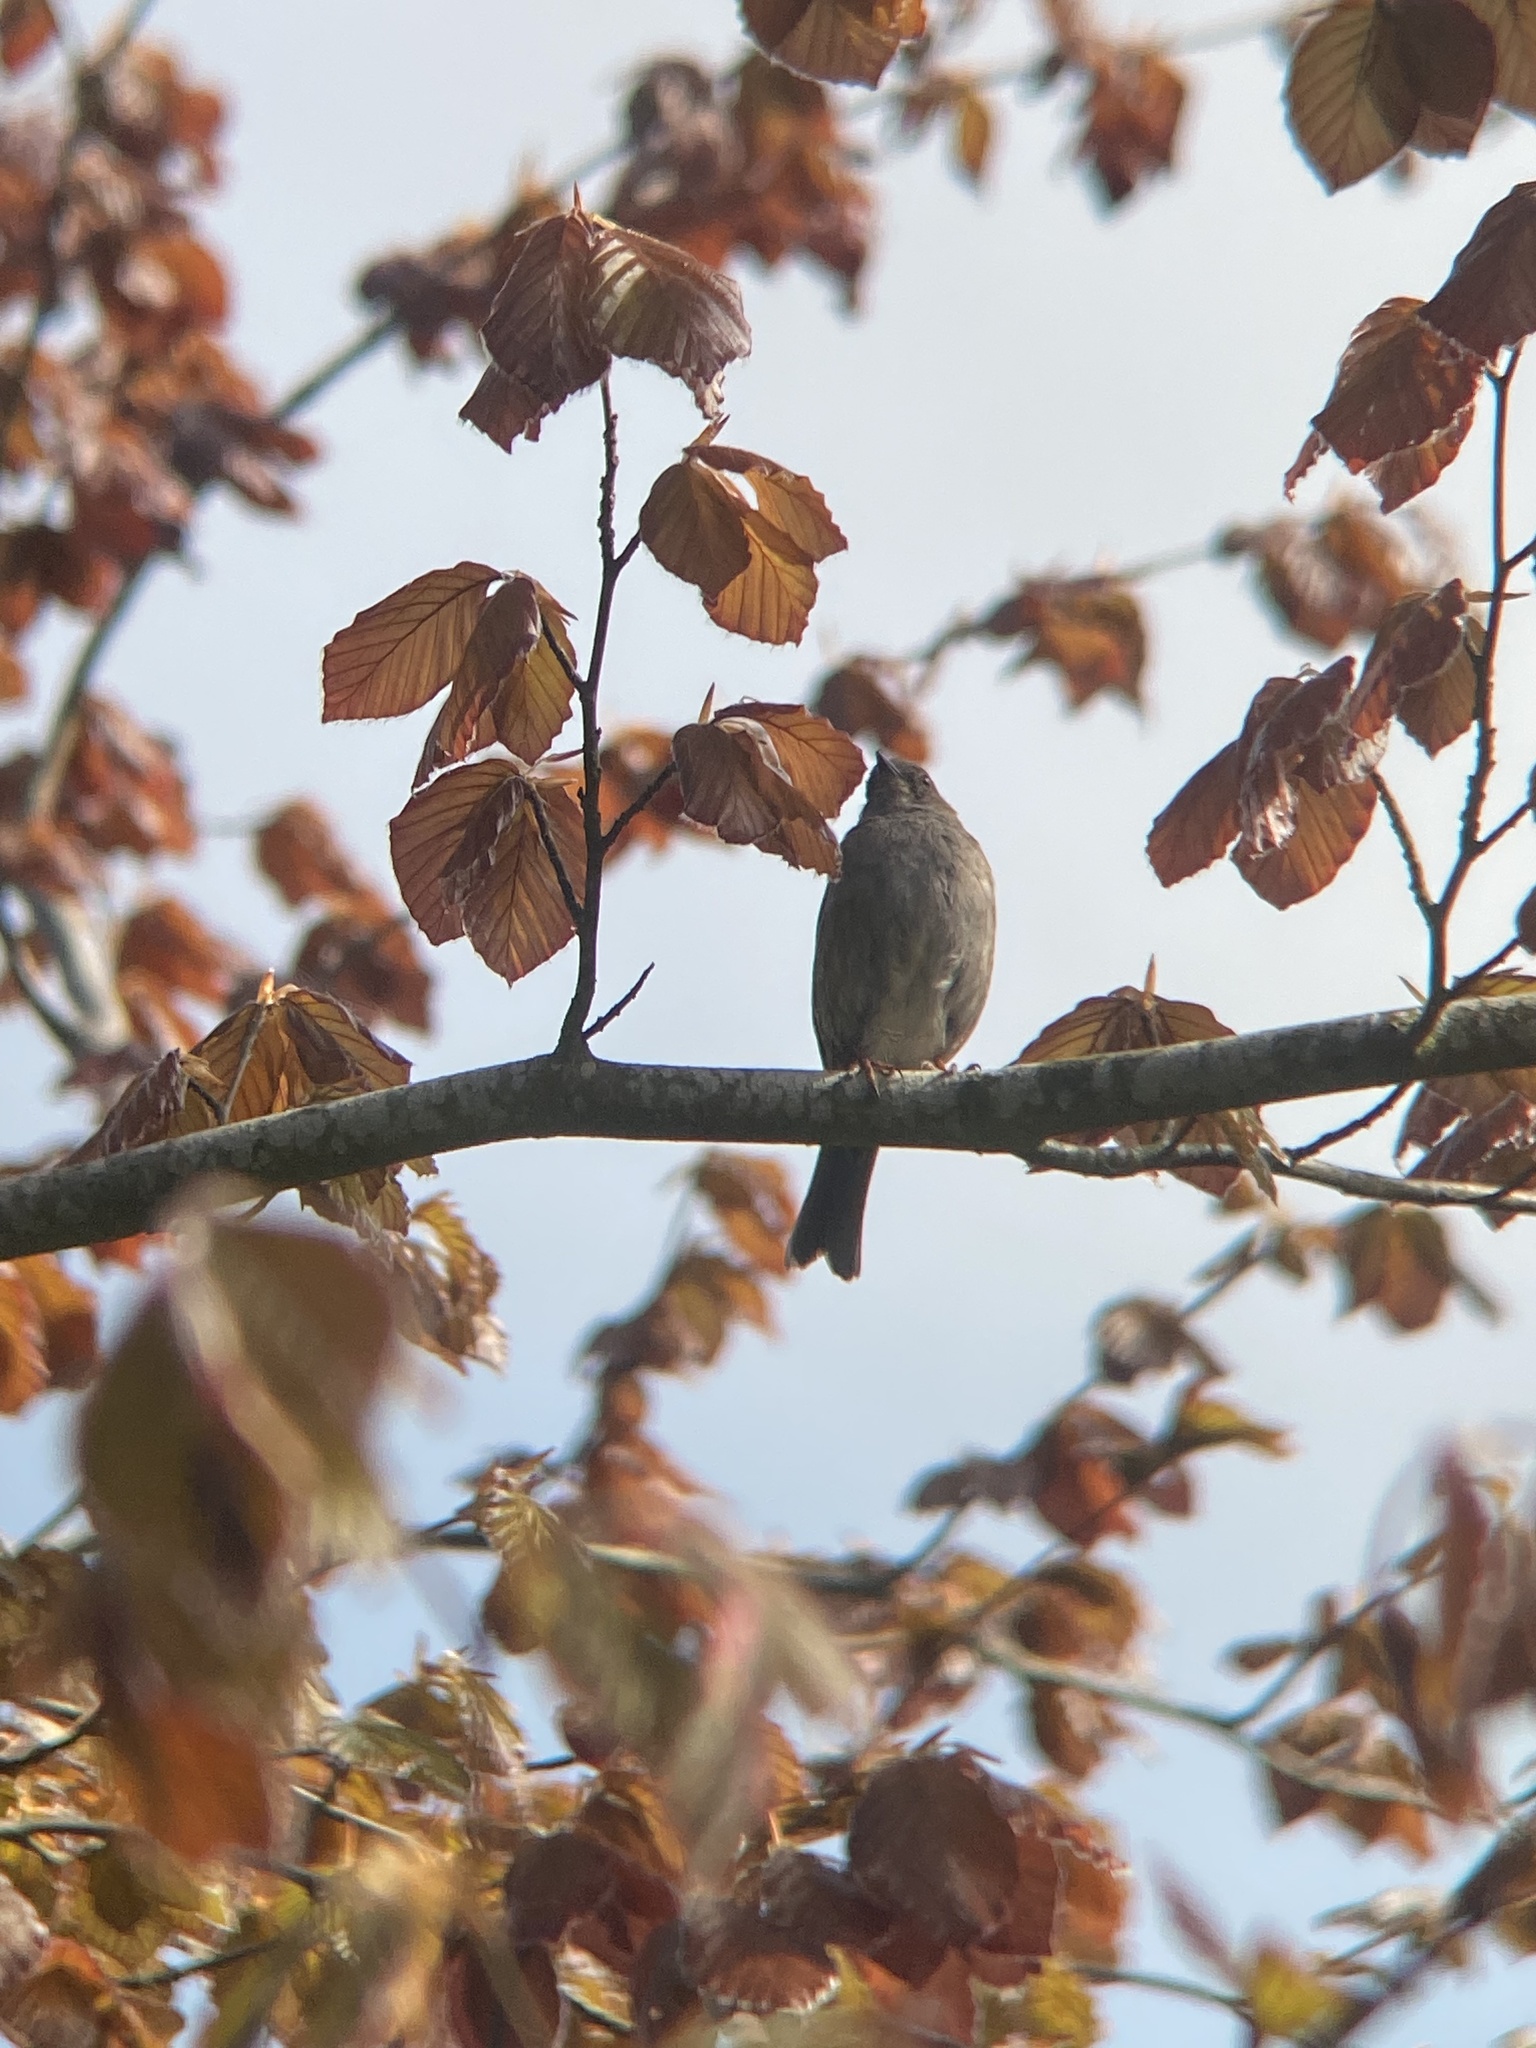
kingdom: Animalia
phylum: Chordata
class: Aves
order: Passeriformes
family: Prunellidae
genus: Prunella
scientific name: Prunella modularis
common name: Dunnock
